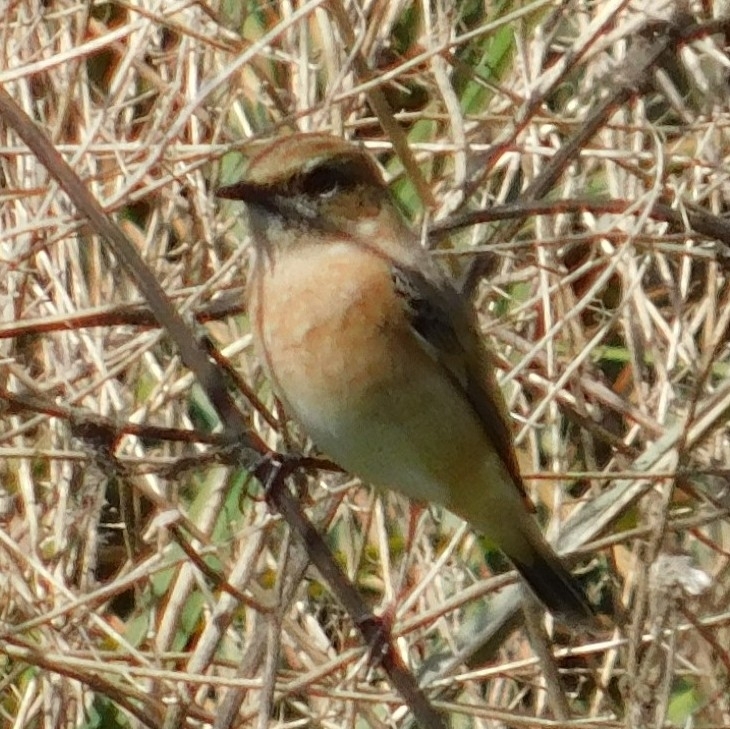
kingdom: Animalia
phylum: Chordata
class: Aves
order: Passeriformes
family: Muscicapidae
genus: Saxicola
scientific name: Saxicola maurus
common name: Siberian stonechat
